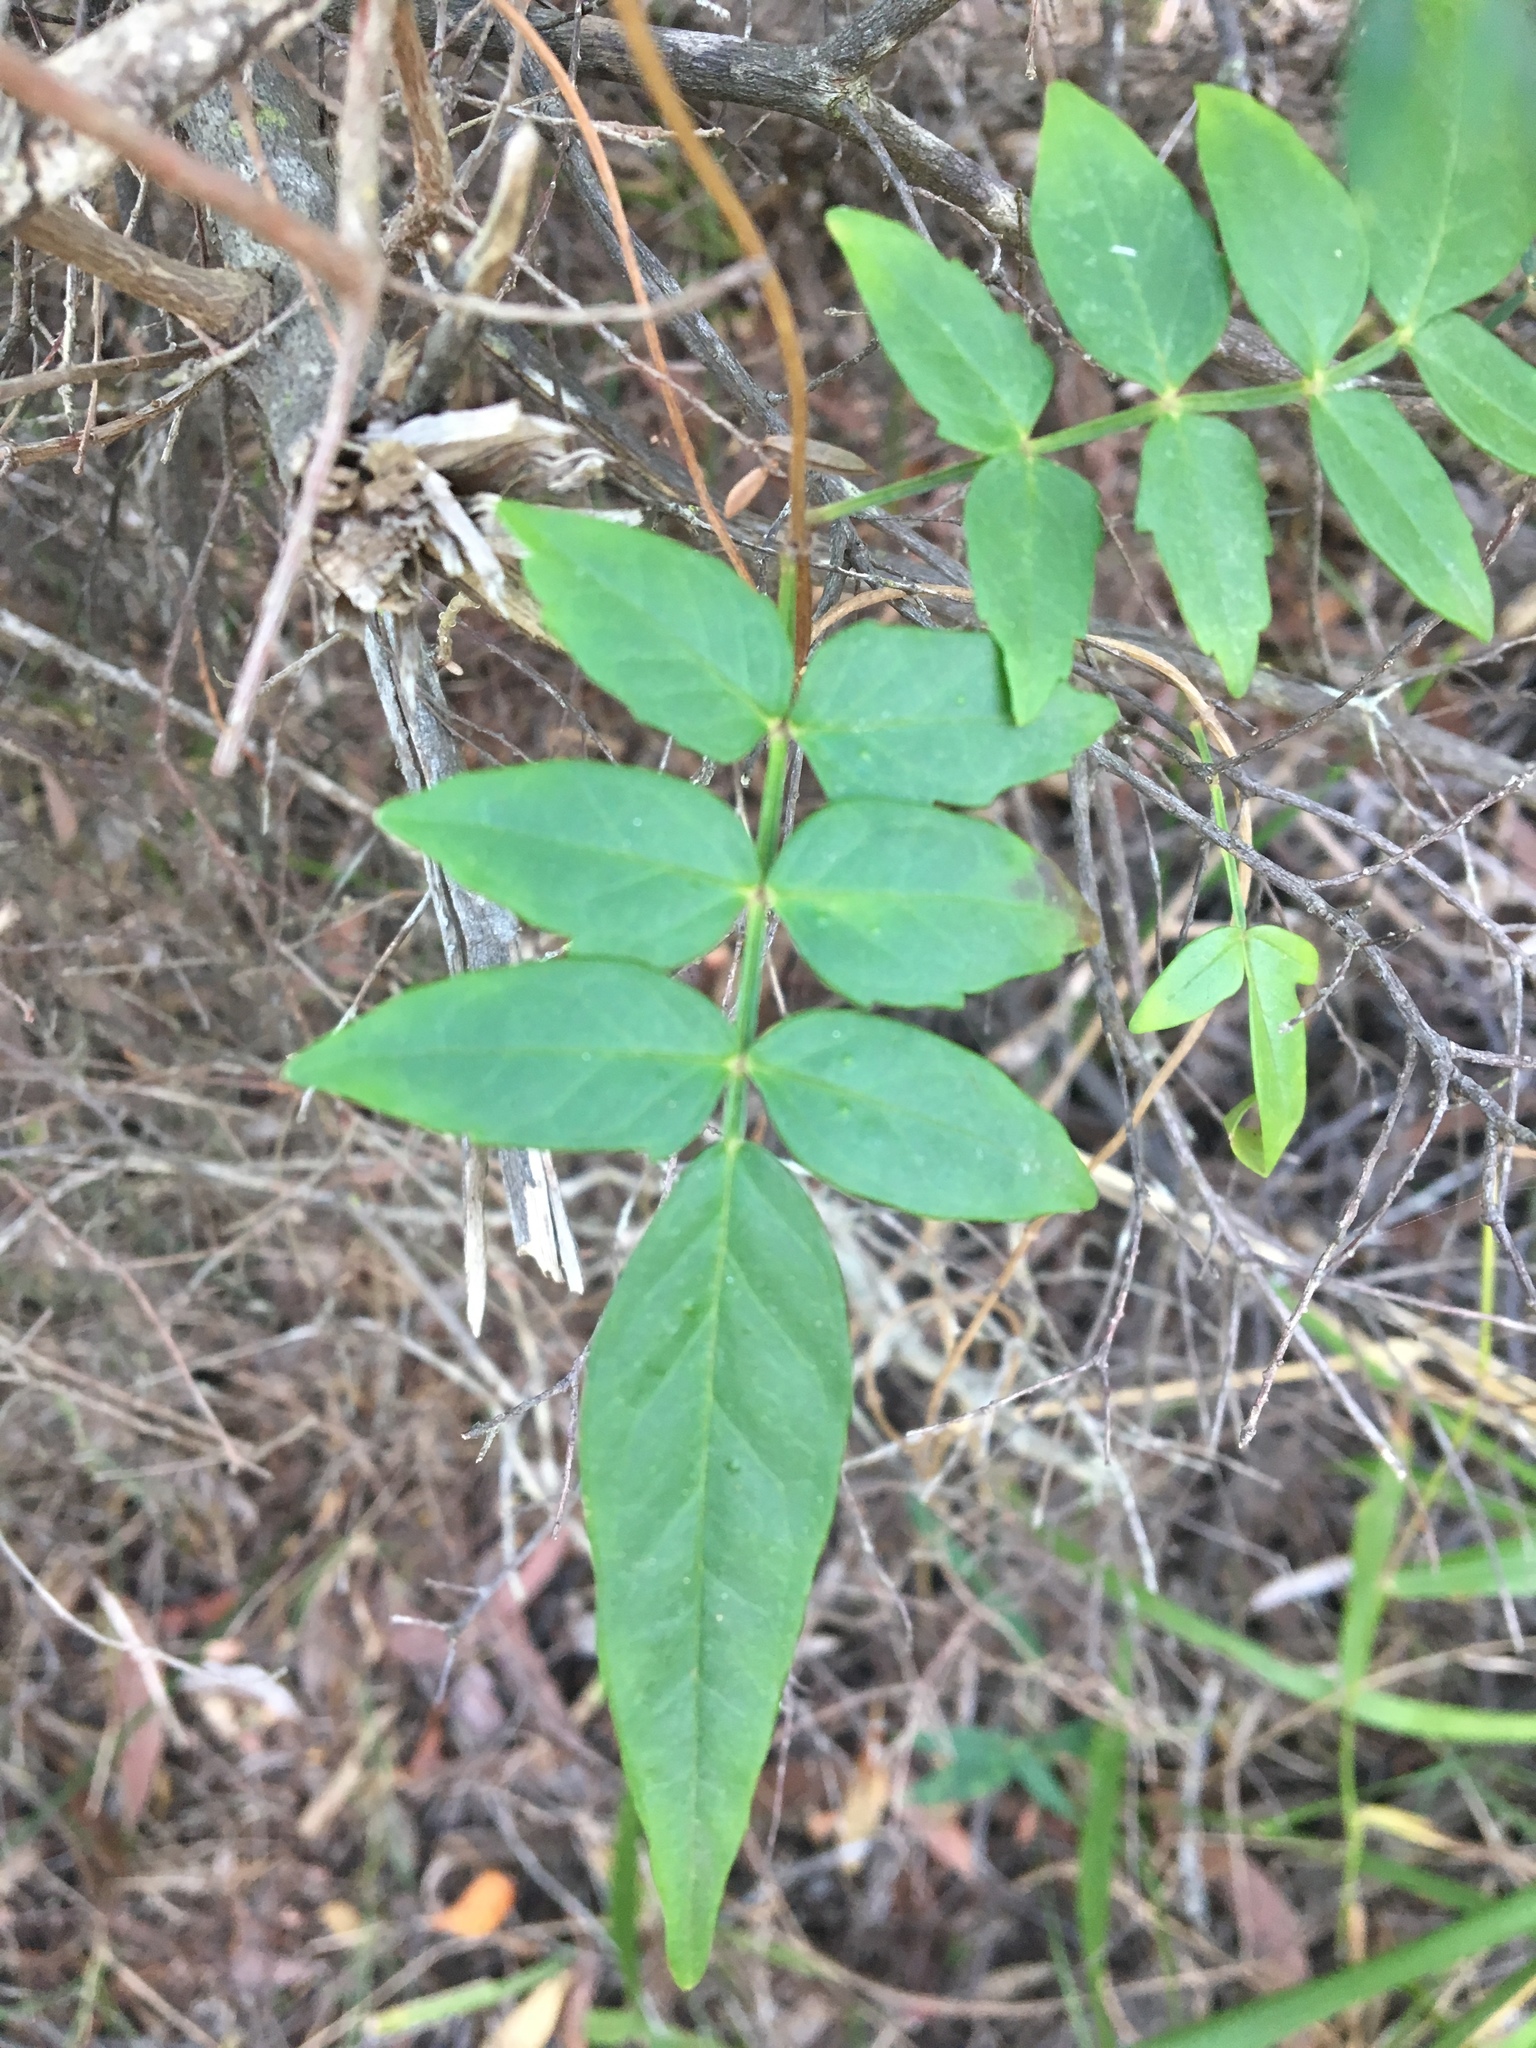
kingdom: Plantae
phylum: Tracheophyta
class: Magnoliopsida
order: Lamiales
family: Bignoniaceae
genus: Pandorea
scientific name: Pandorea pandorana
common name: Wonga-wonga-vine
